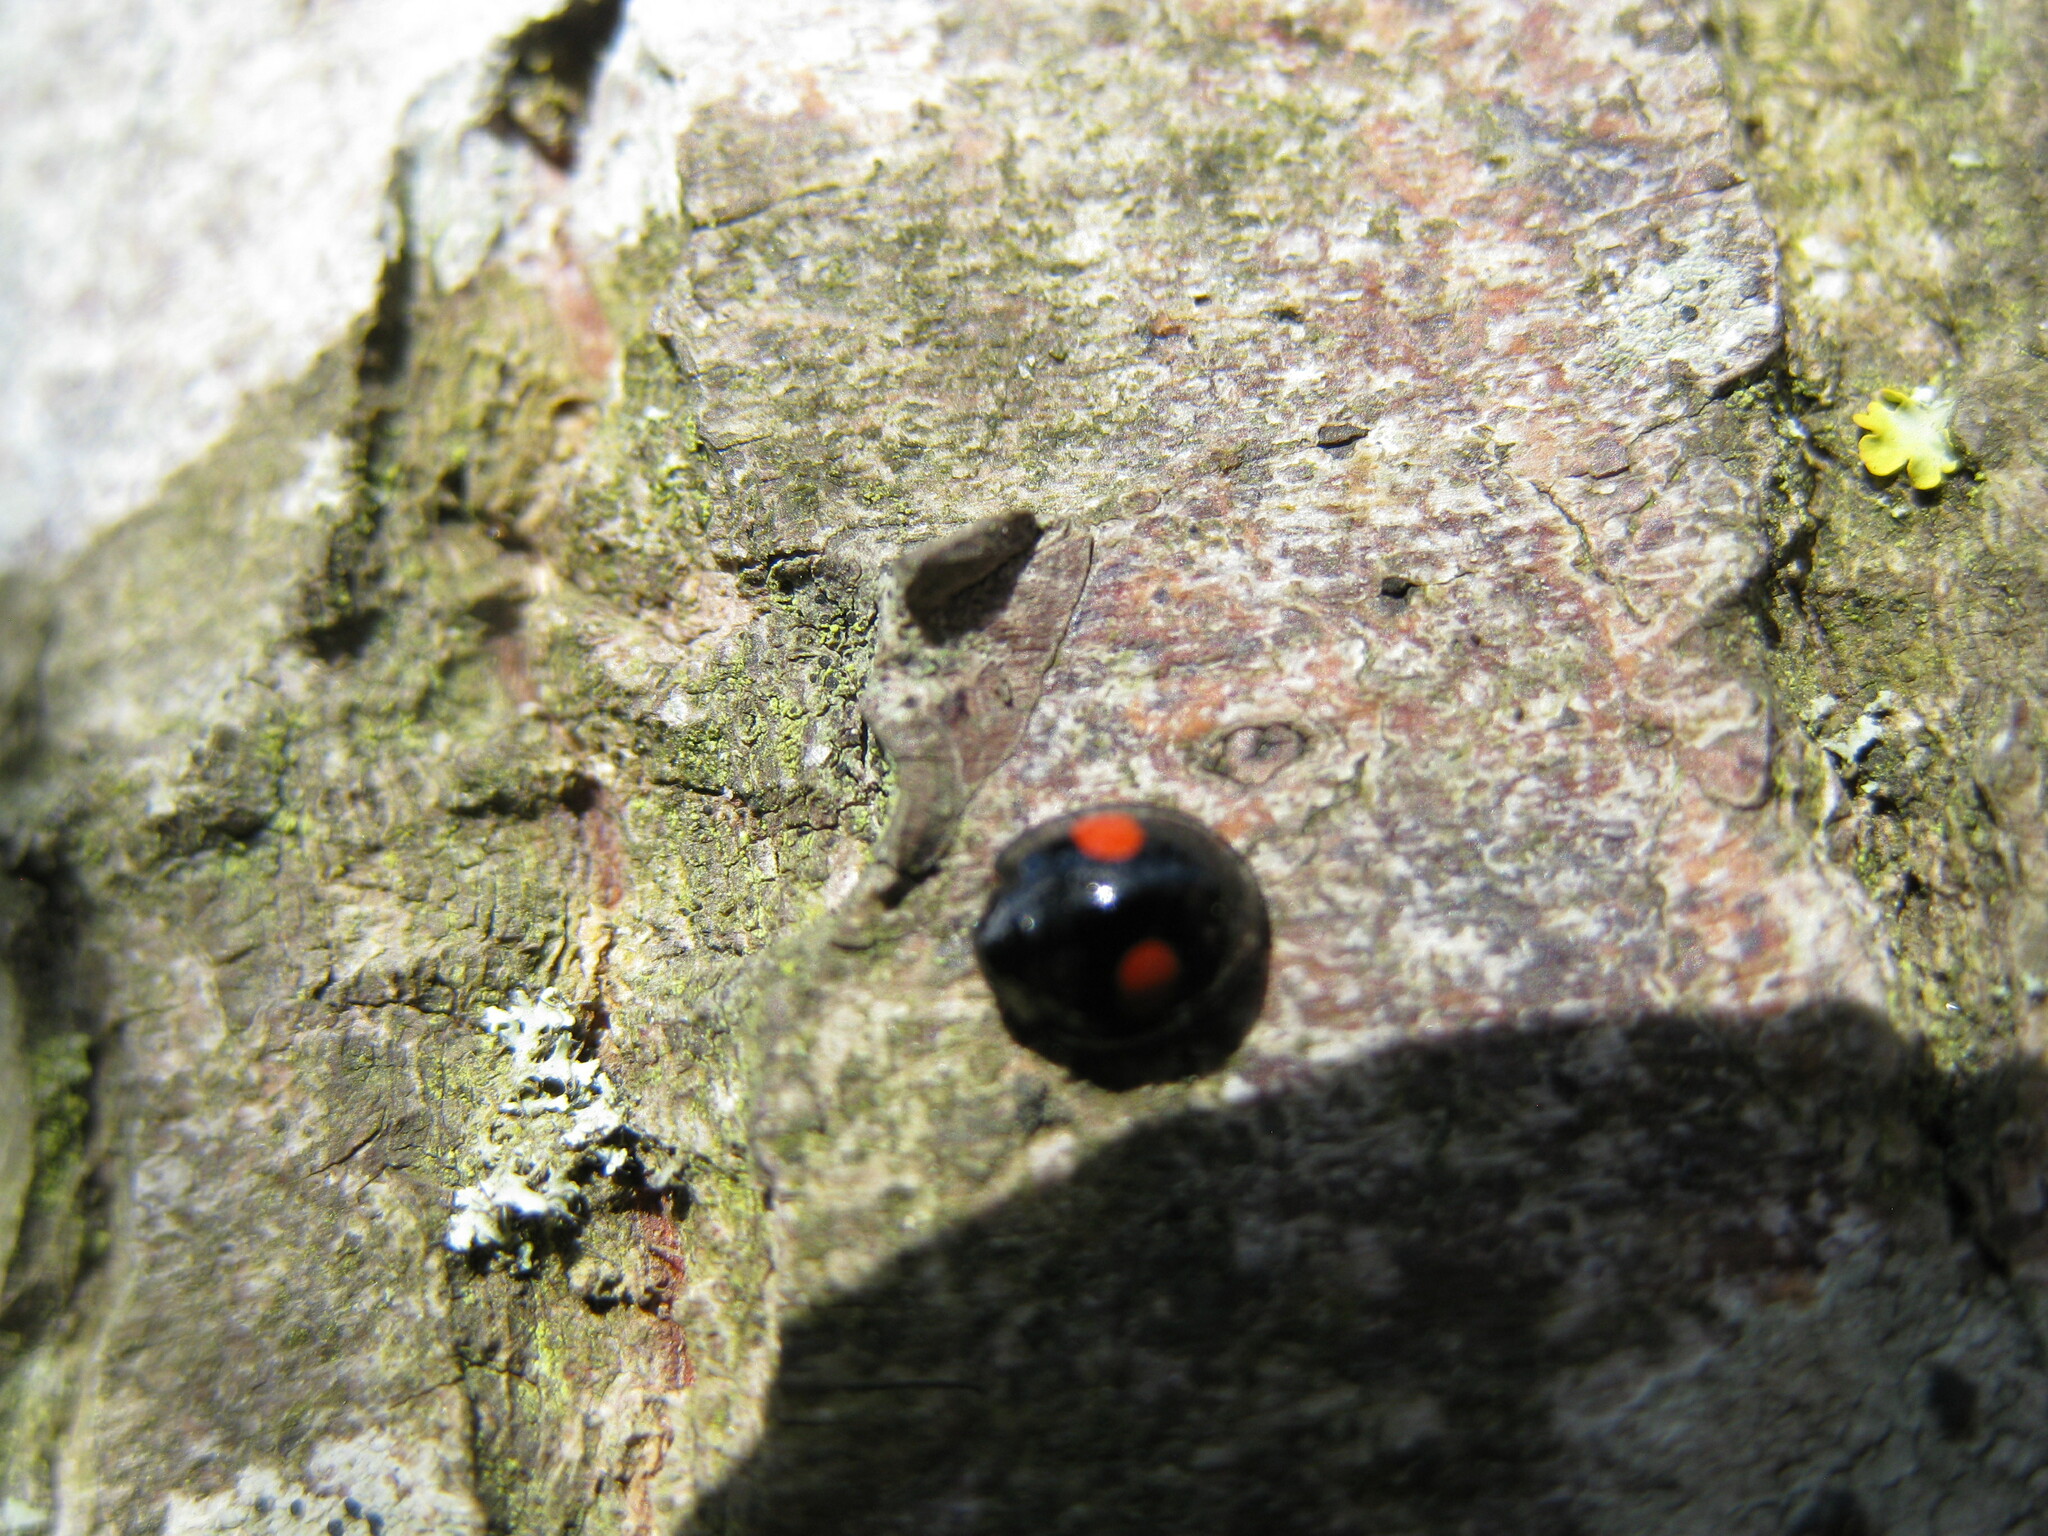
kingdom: Animalia
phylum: Arthropoda
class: Insecta
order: Coleoptera
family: Coccinellidae
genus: Chilocorus
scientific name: Chilocorus renipustulatus
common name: Kidney-spot ladybird
